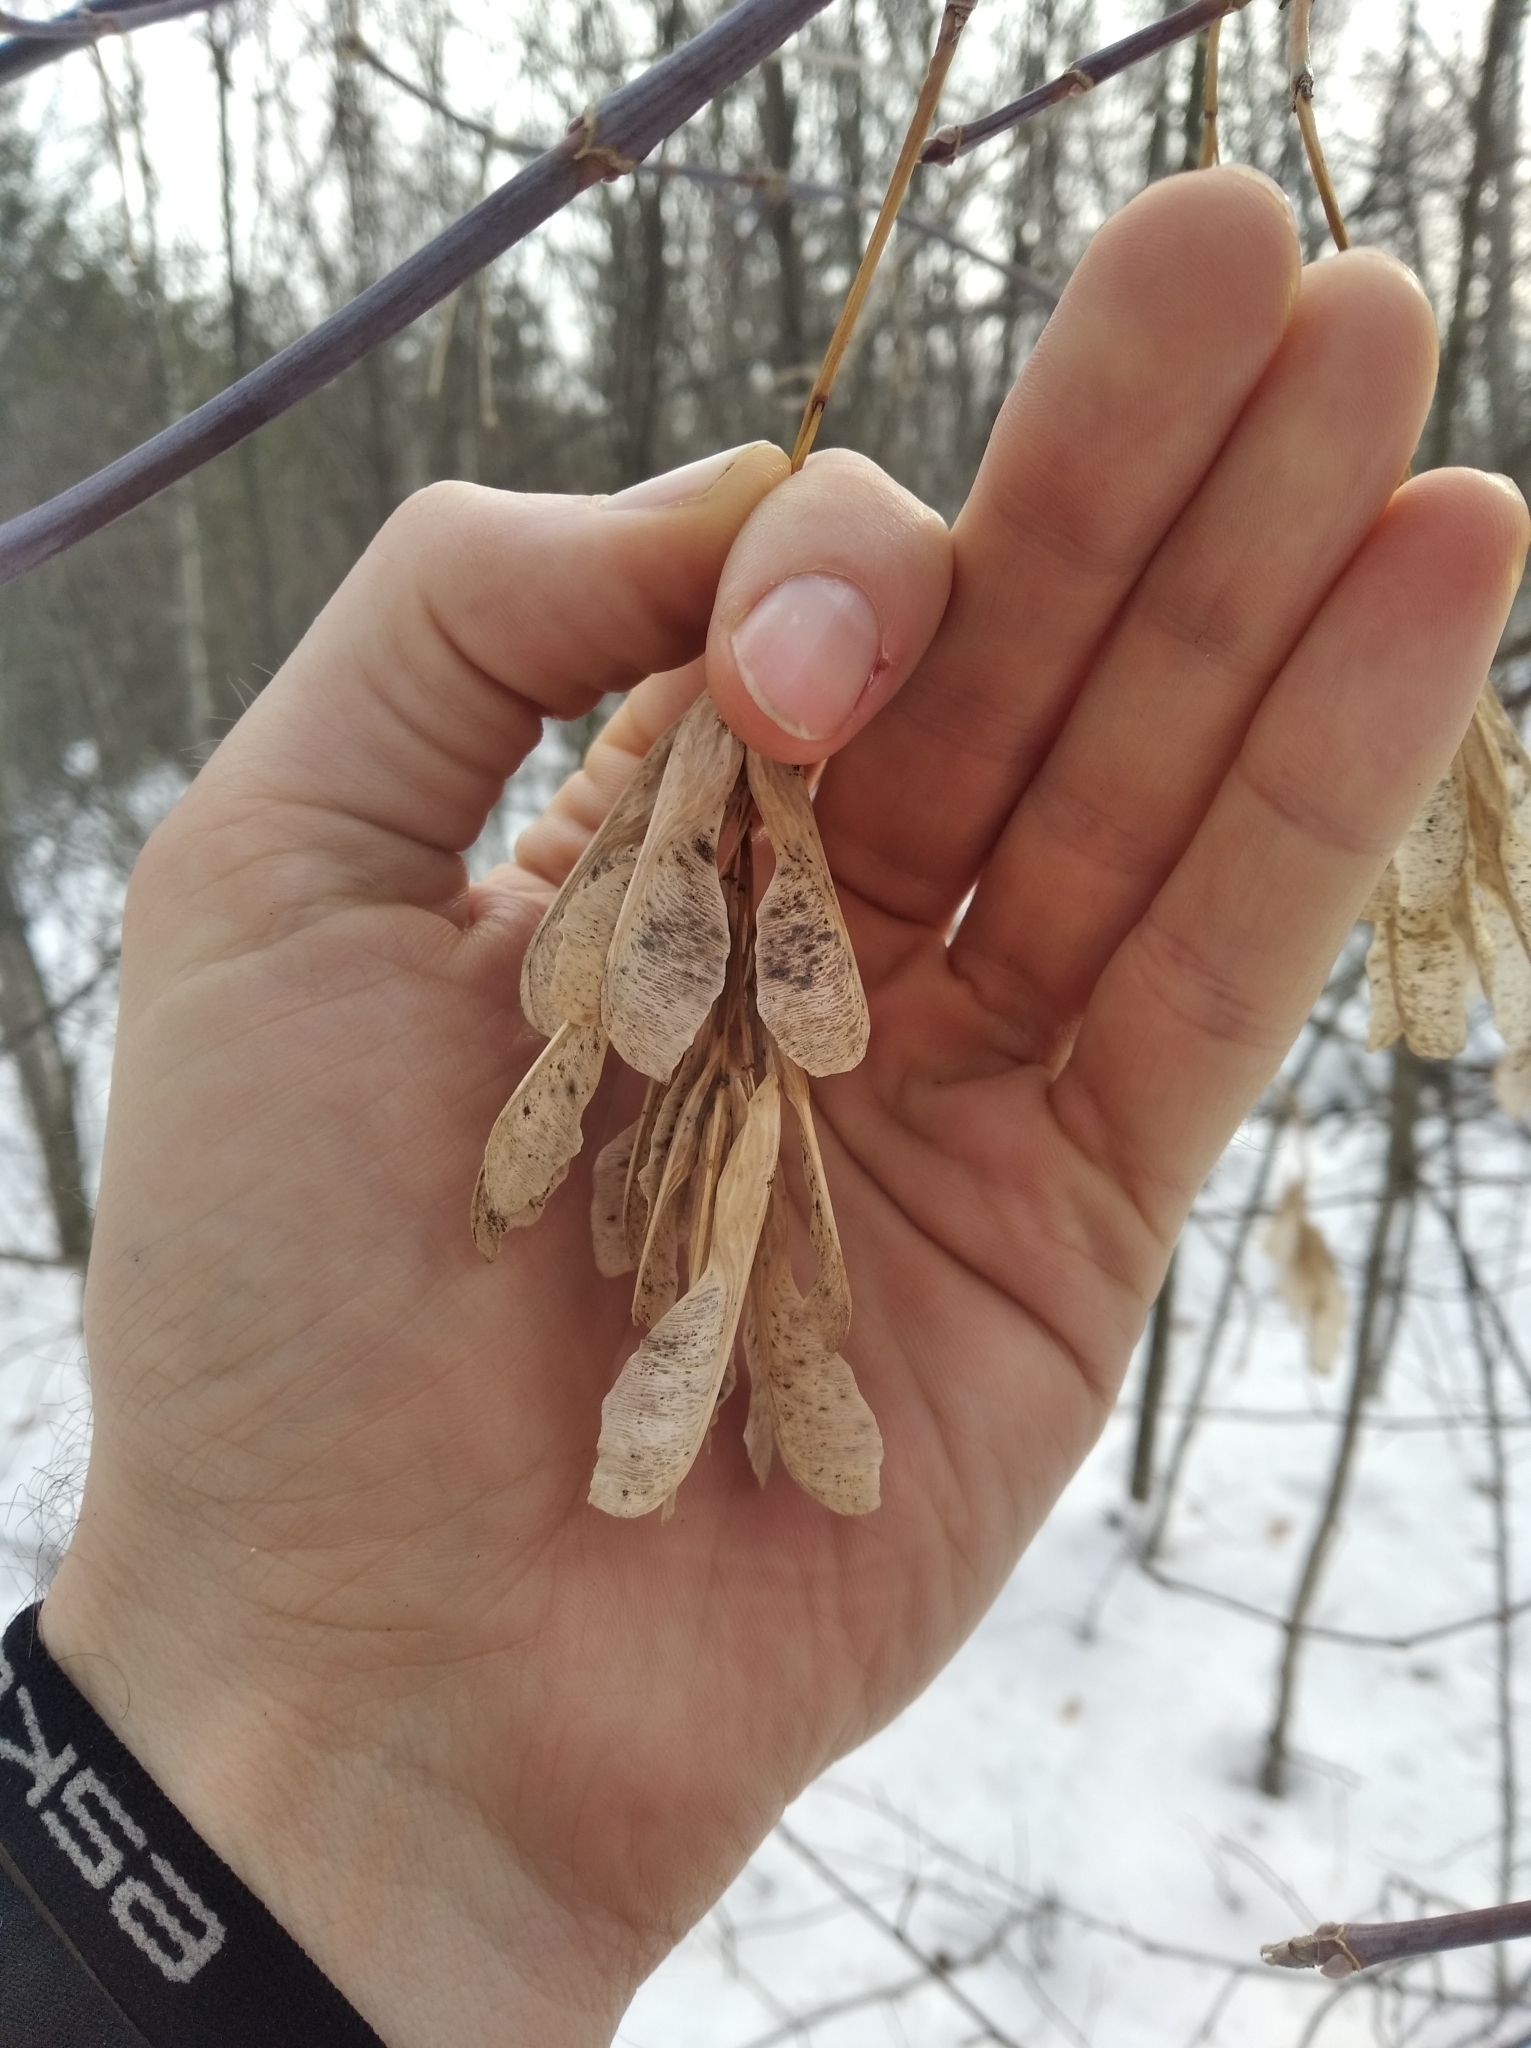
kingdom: Plantae
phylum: Tracheophyta
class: Magnoliopsida
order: Sapindales
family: Sapindaceae
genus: Acer
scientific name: Acer negundo
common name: Ashleaf maple
